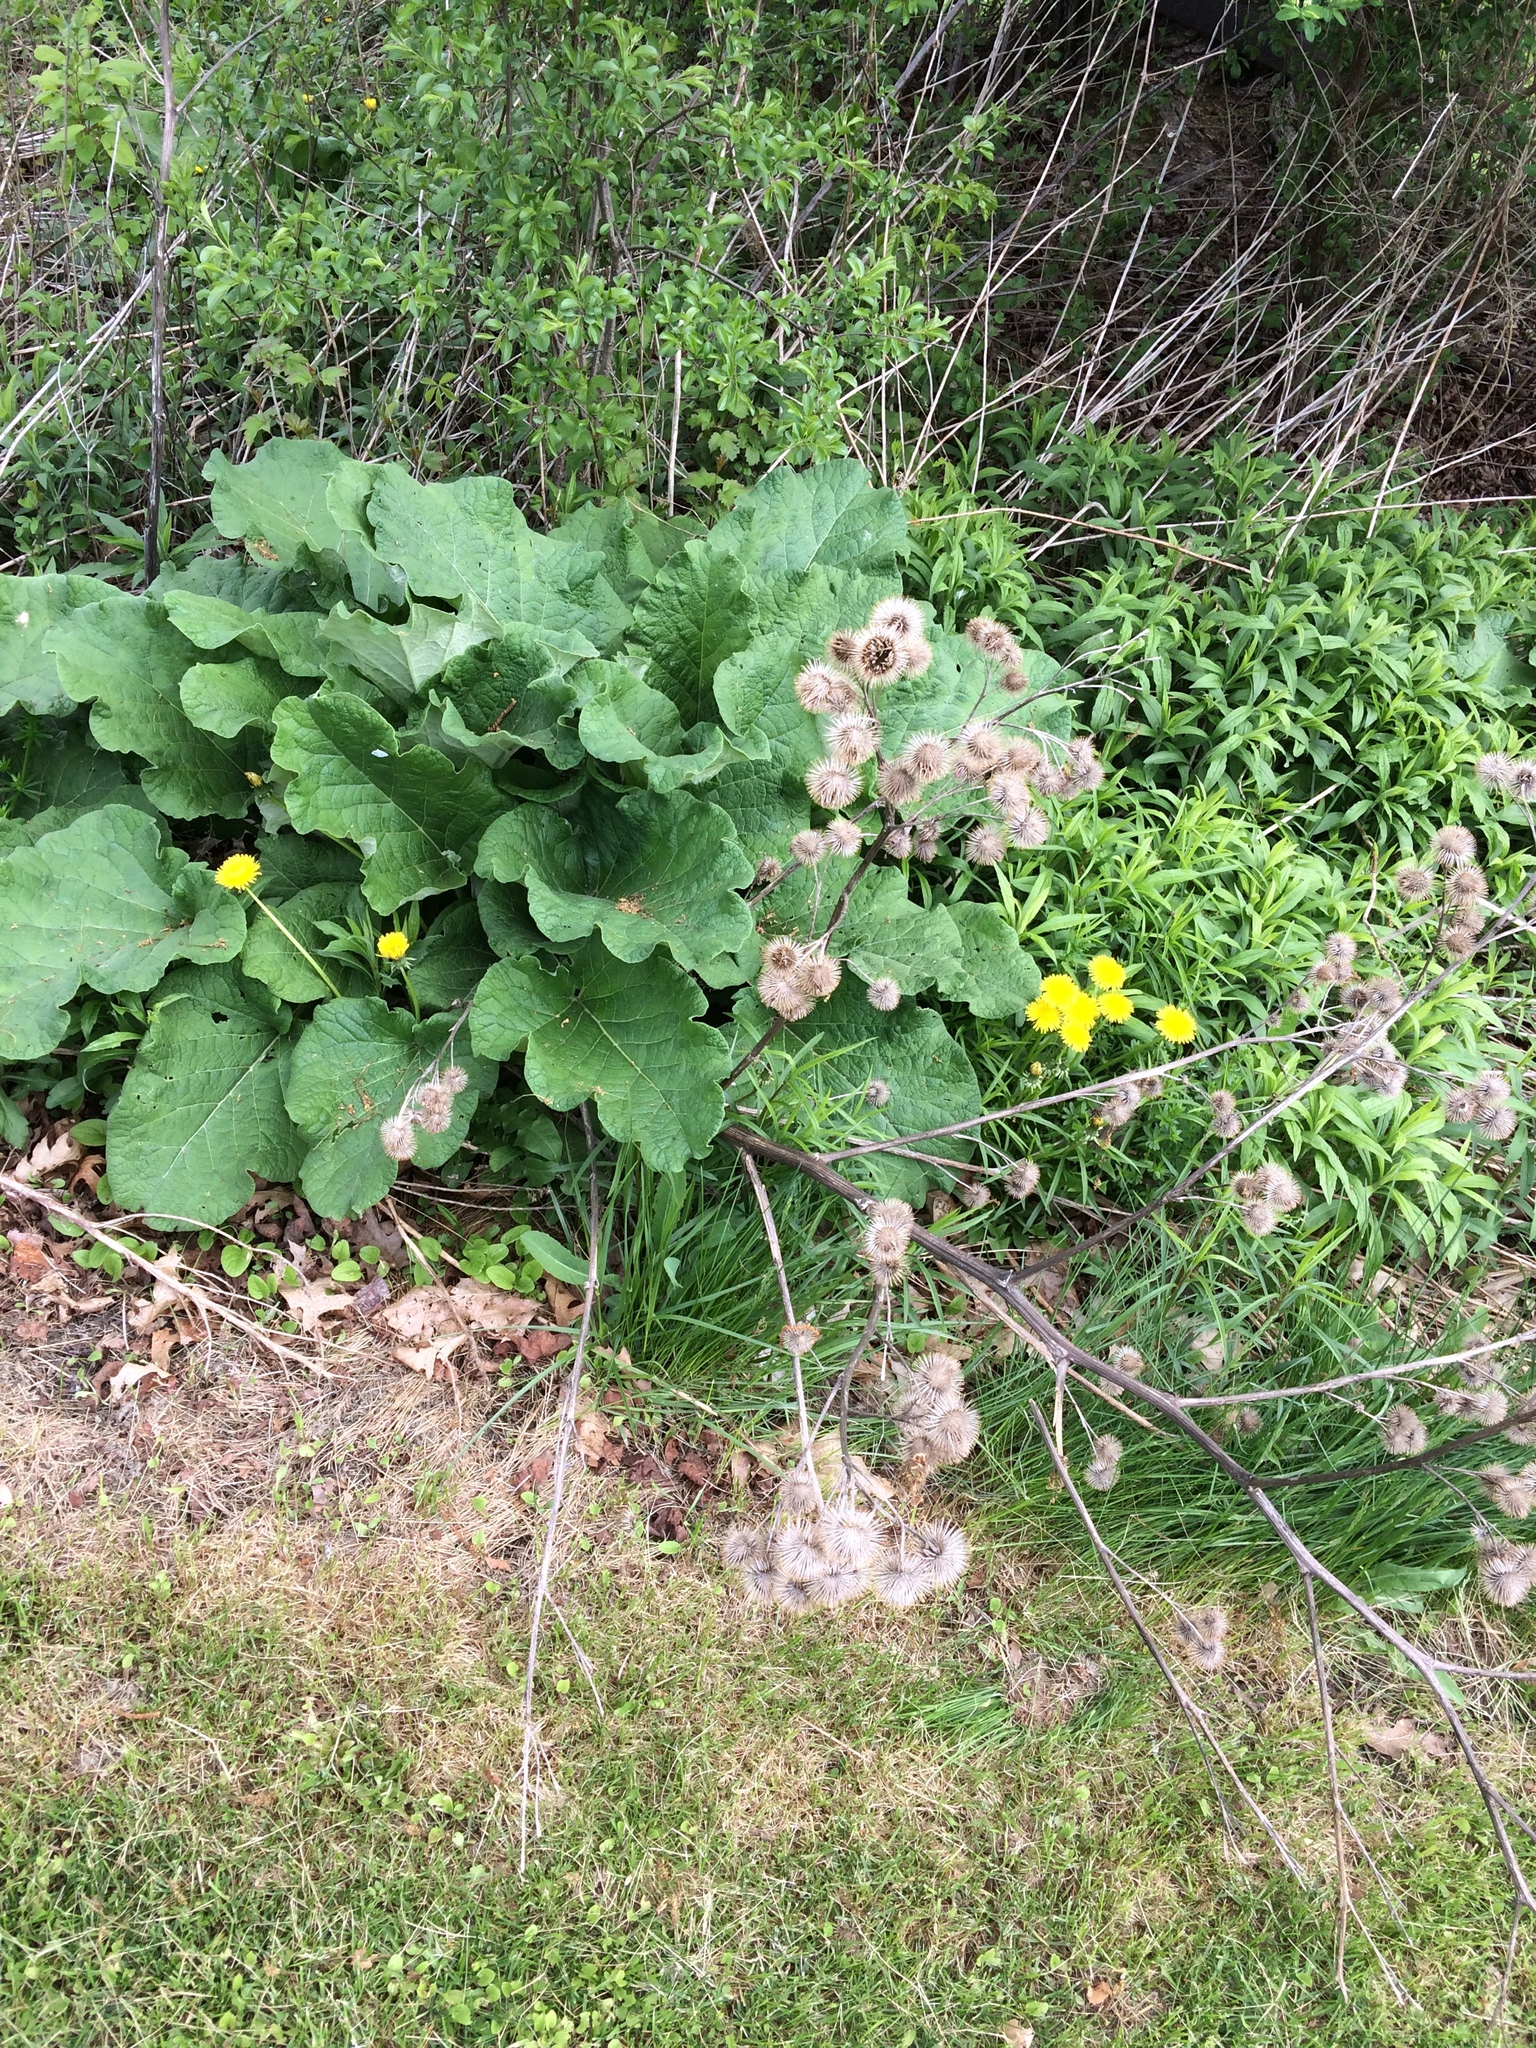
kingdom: Plantae
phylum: Tracheophyta
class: Magnoliopsida
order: Asterales
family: Asteraceae
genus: Arctium
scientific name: Arctium lappa
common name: Greater burdock
